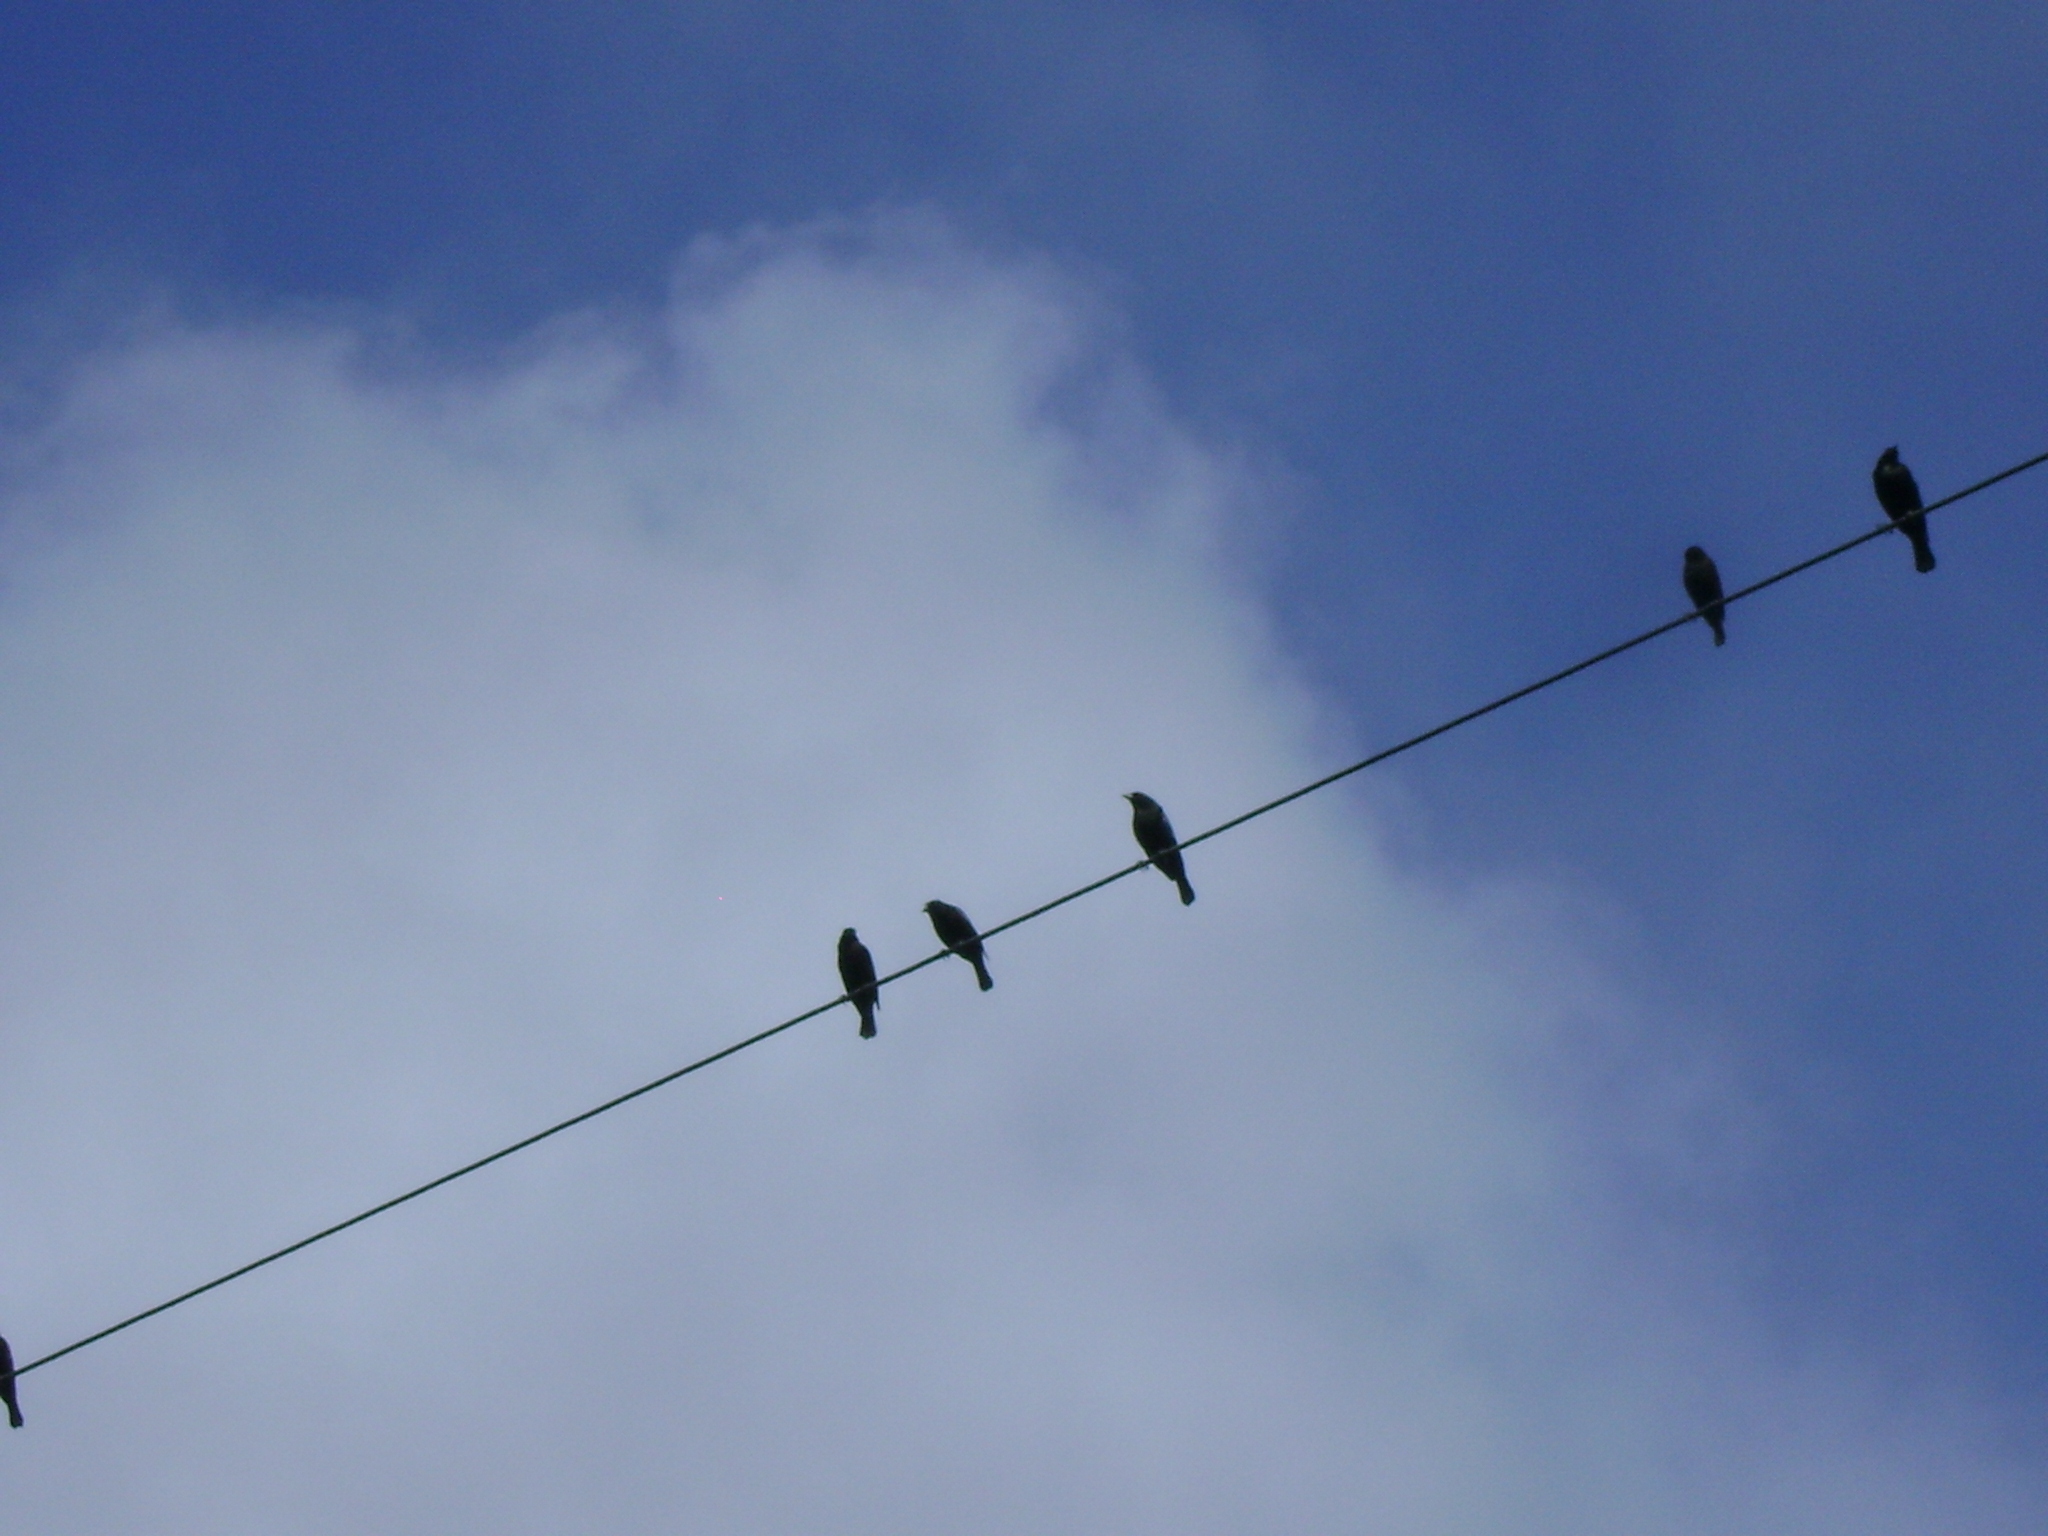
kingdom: Animalia
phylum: Chordata
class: Aves
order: Passeriformes
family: Icteridae
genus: Molothrus
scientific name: Molothrus aeneus
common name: Bronzed cowbird
